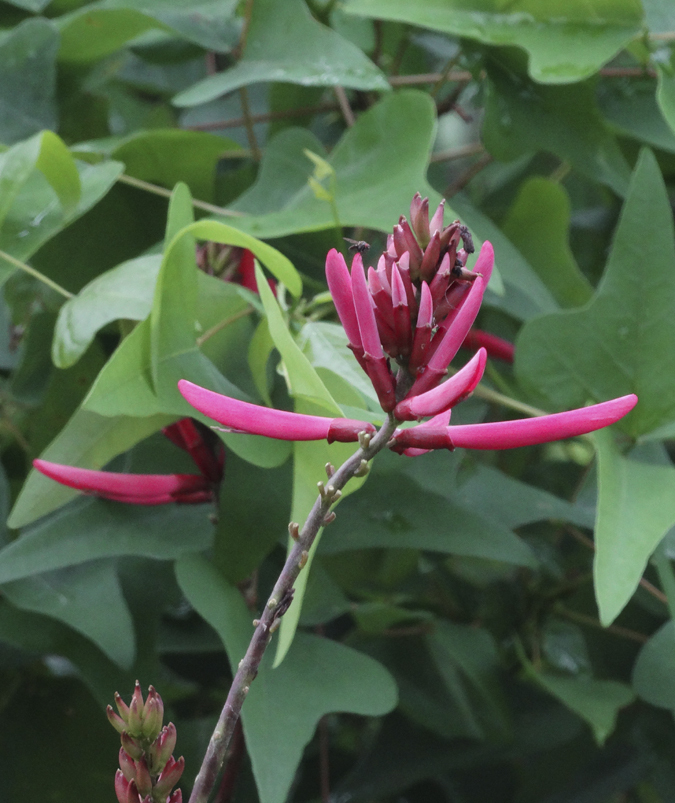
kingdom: Plantae
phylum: Tracheophyta
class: Magnoliopsida
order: Fabales
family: Fabaceae
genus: Erythrina
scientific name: Erythrina herbacea
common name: Coral-bean
